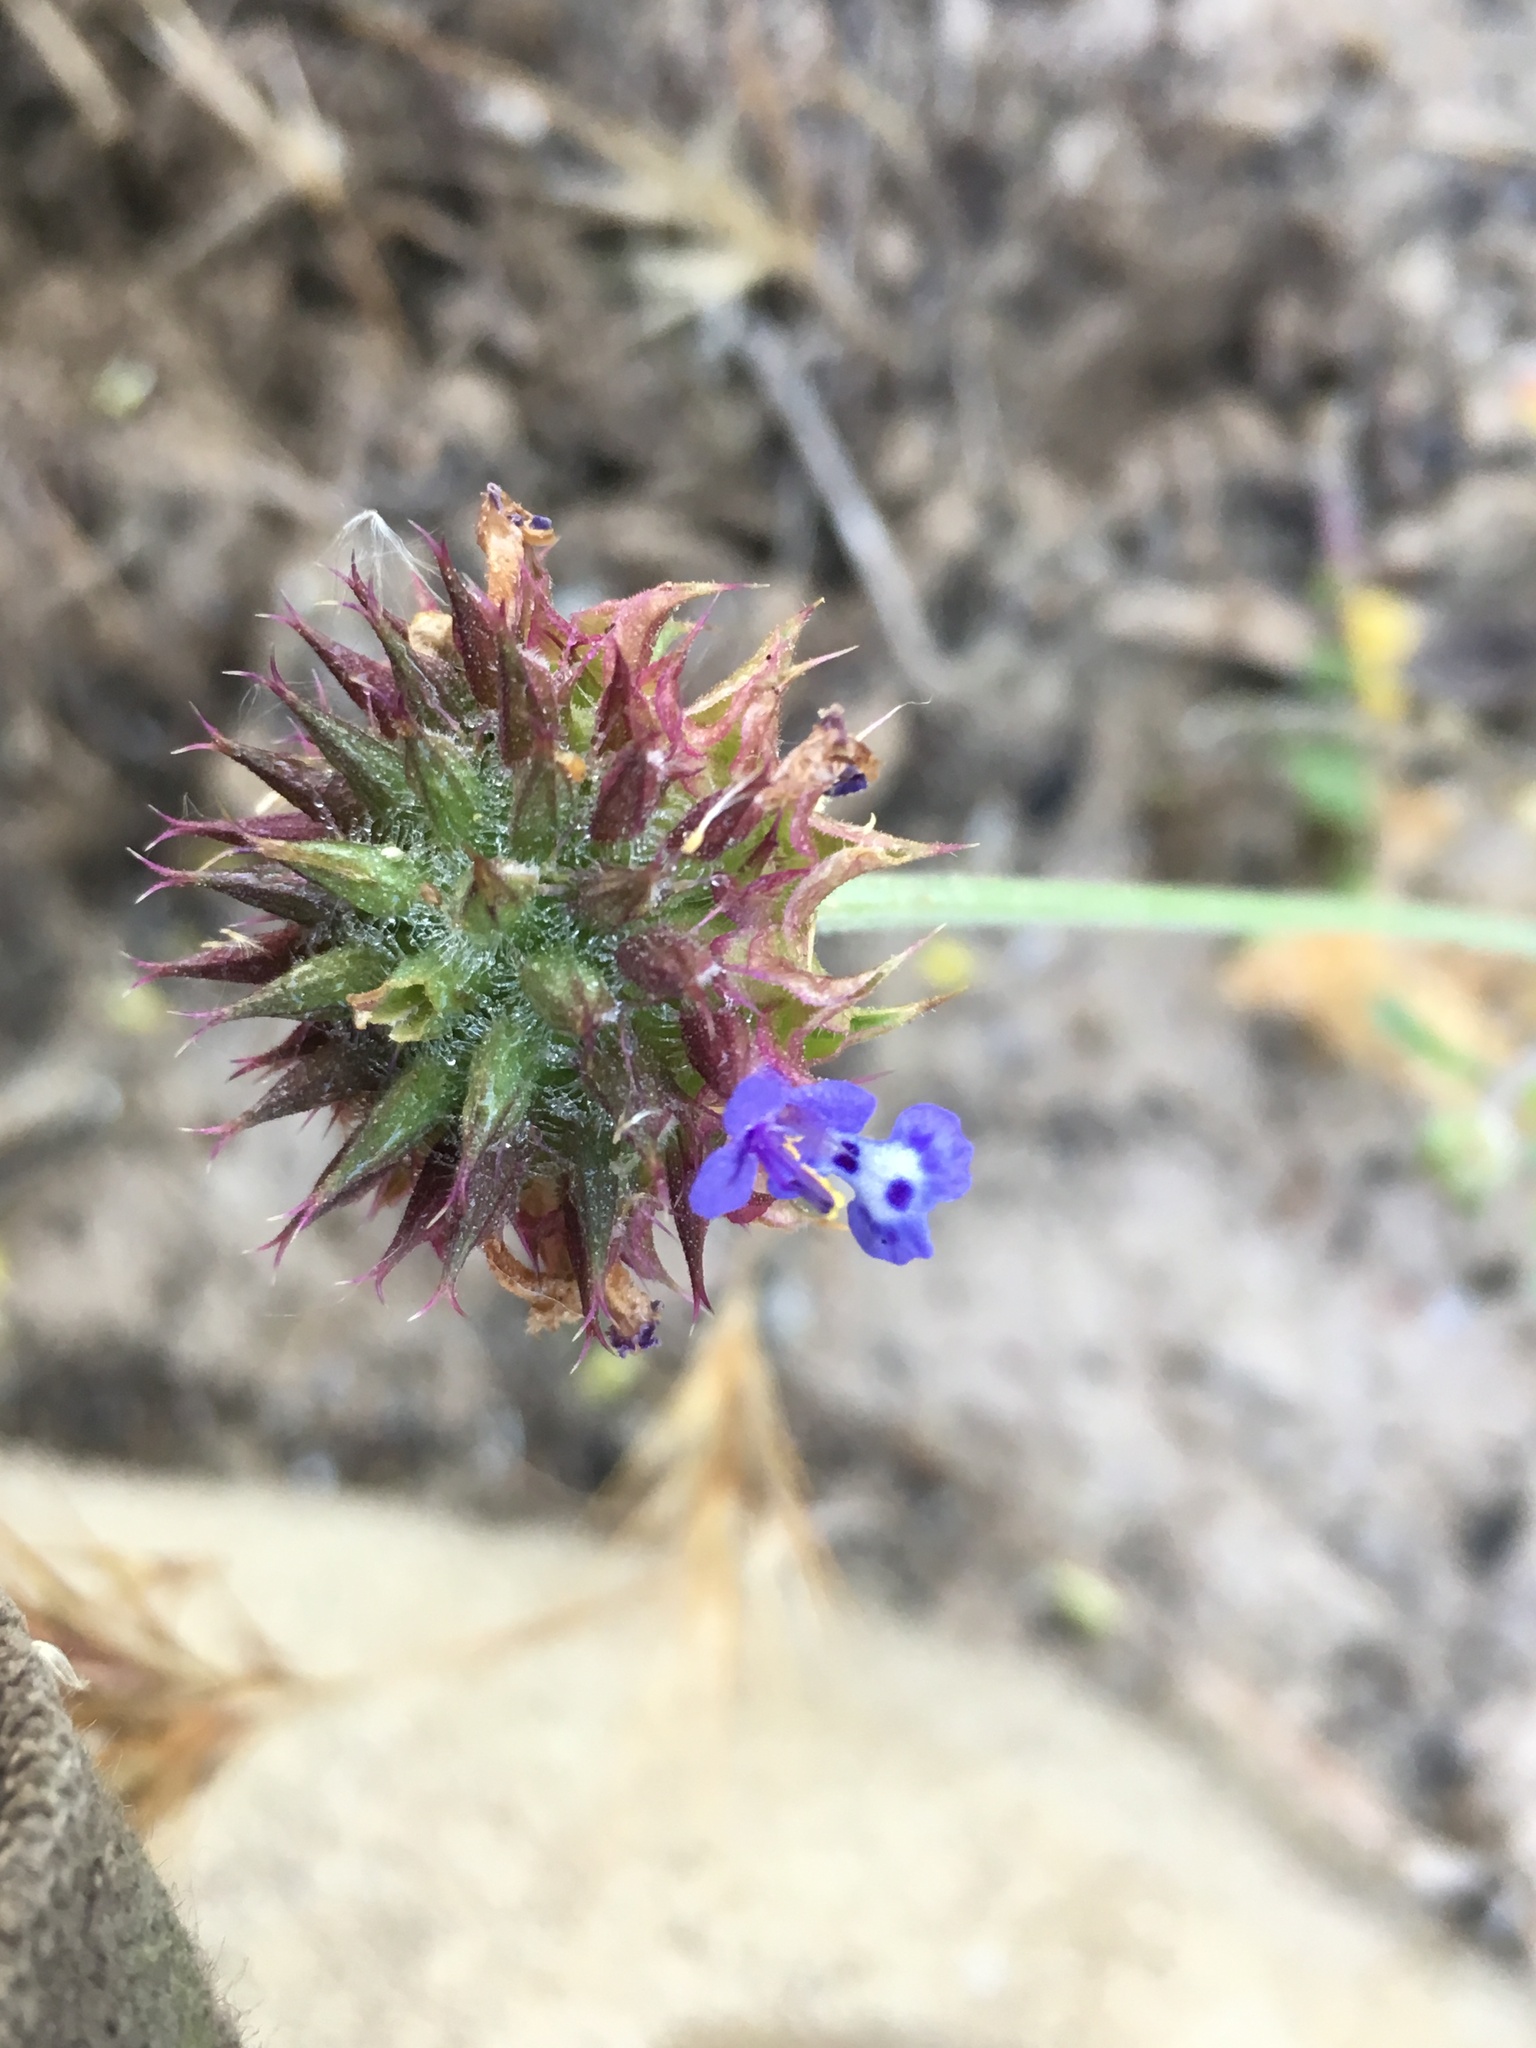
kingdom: Plantae
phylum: Tracheophyta
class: Magnoliopsida
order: Lamiales
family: Lamiaceae
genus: Salvia
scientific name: Salvia columbariae
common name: Chia
